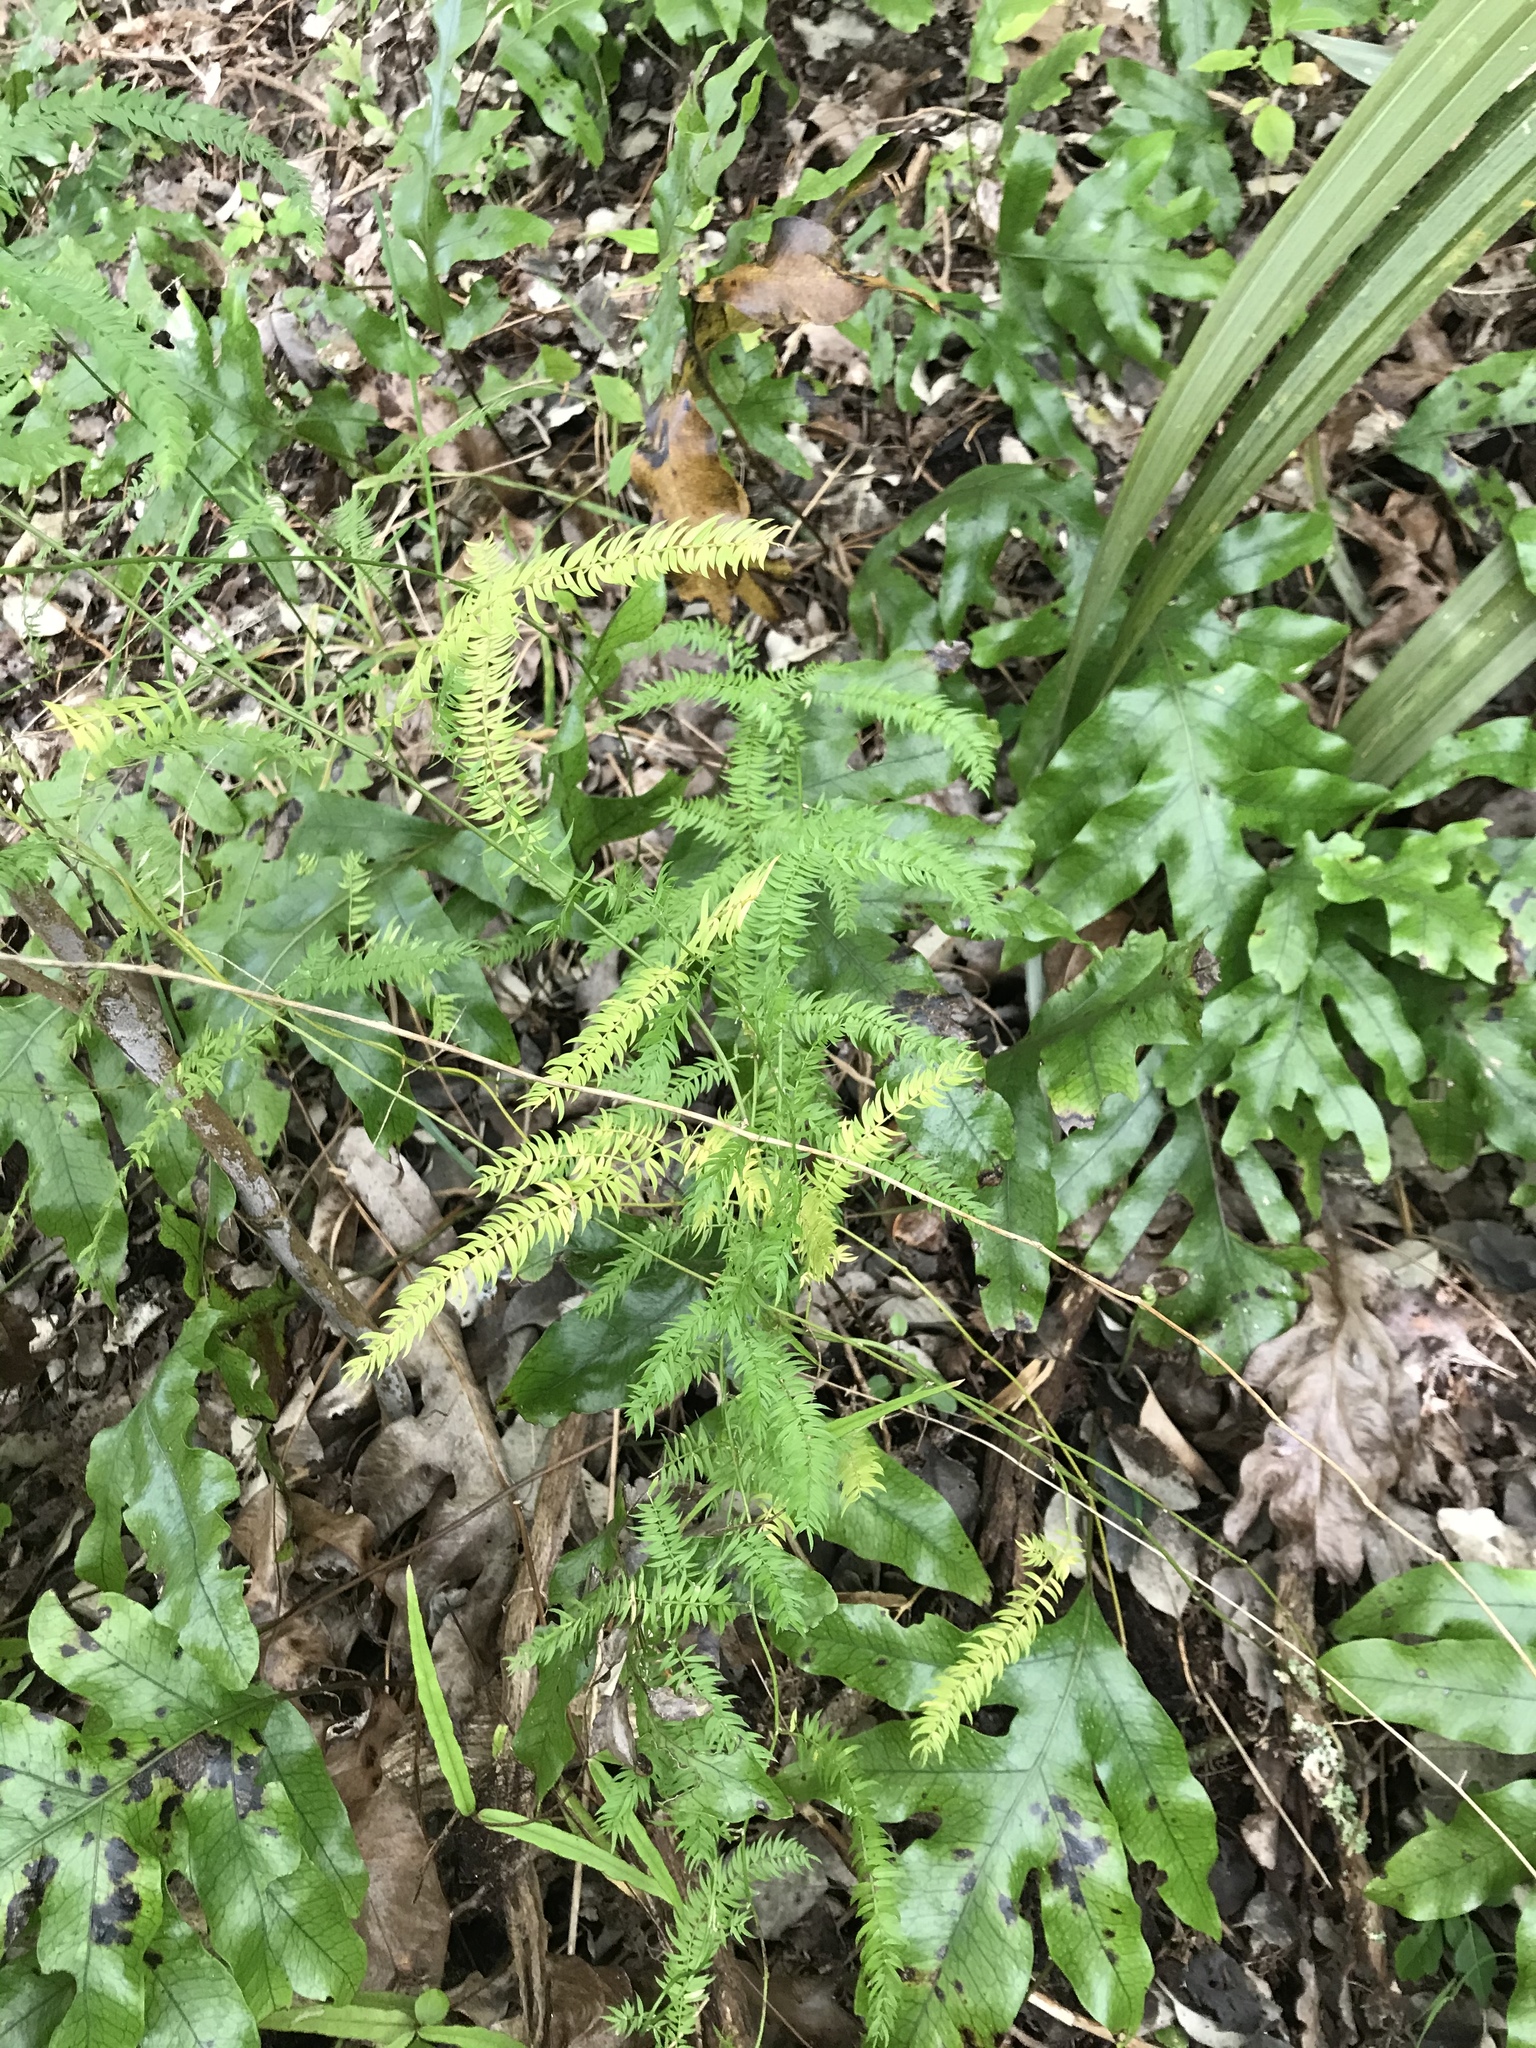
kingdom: Plantae
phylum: Tracheophyta
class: Liliopsida
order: Asparagales
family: Asparagaceae
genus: Asparagus
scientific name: Asparagus scandens
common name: Asparagus-fern
